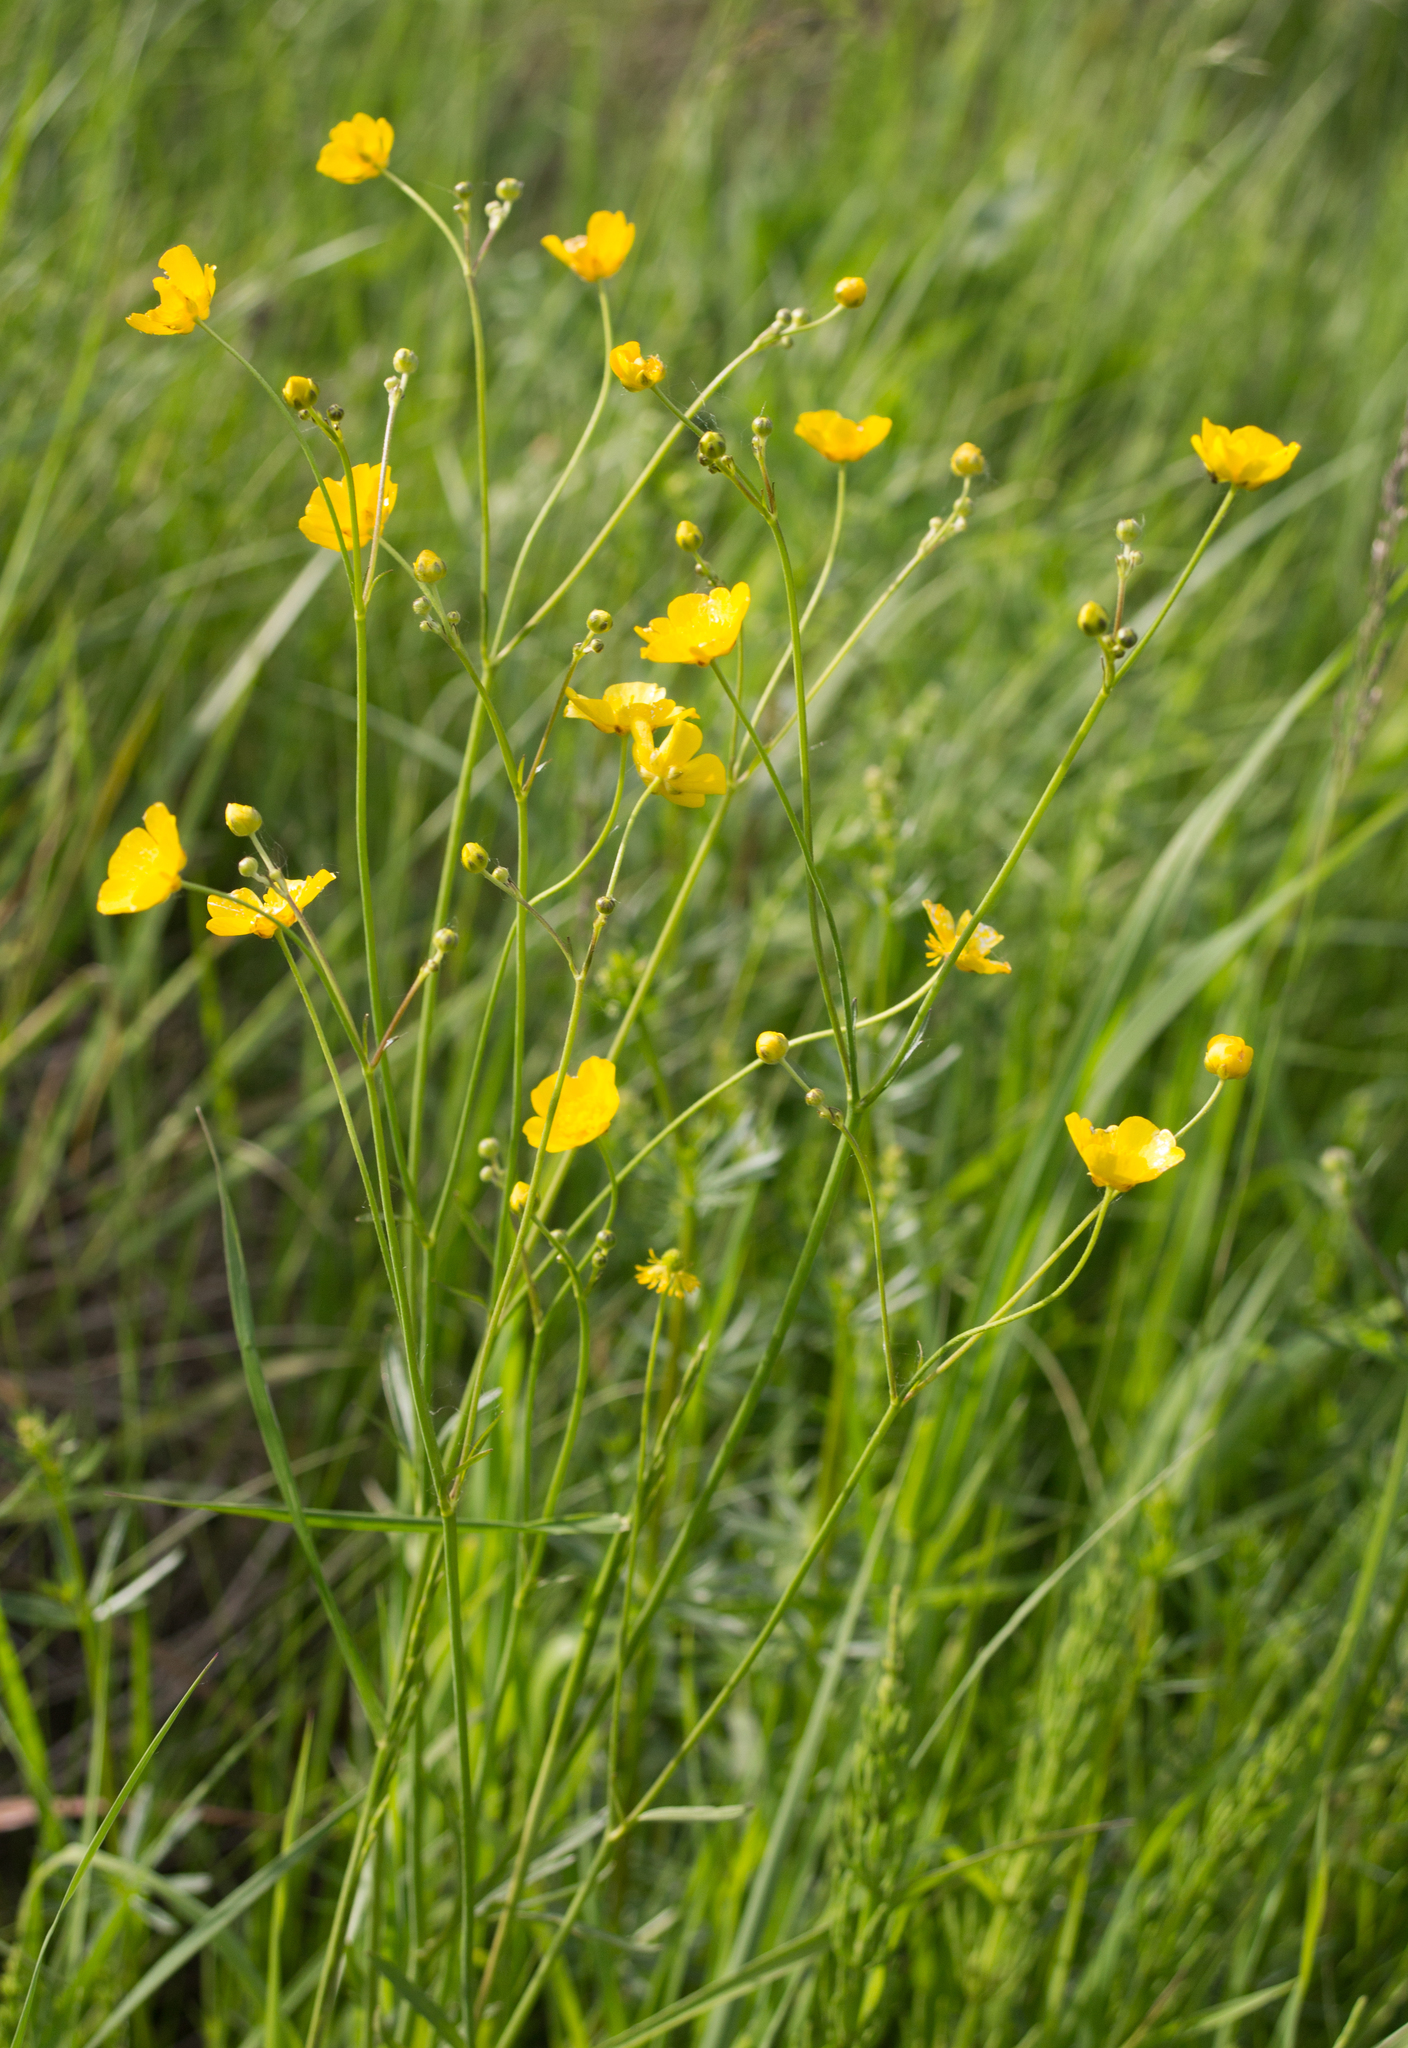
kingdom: Plantae
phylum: Tracheophyta
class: Magnoliopsida
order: Ranunculales
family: Ranunculaceae
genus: Ranunculus
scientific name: Ranunculus acris
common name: Meadow buttercup
